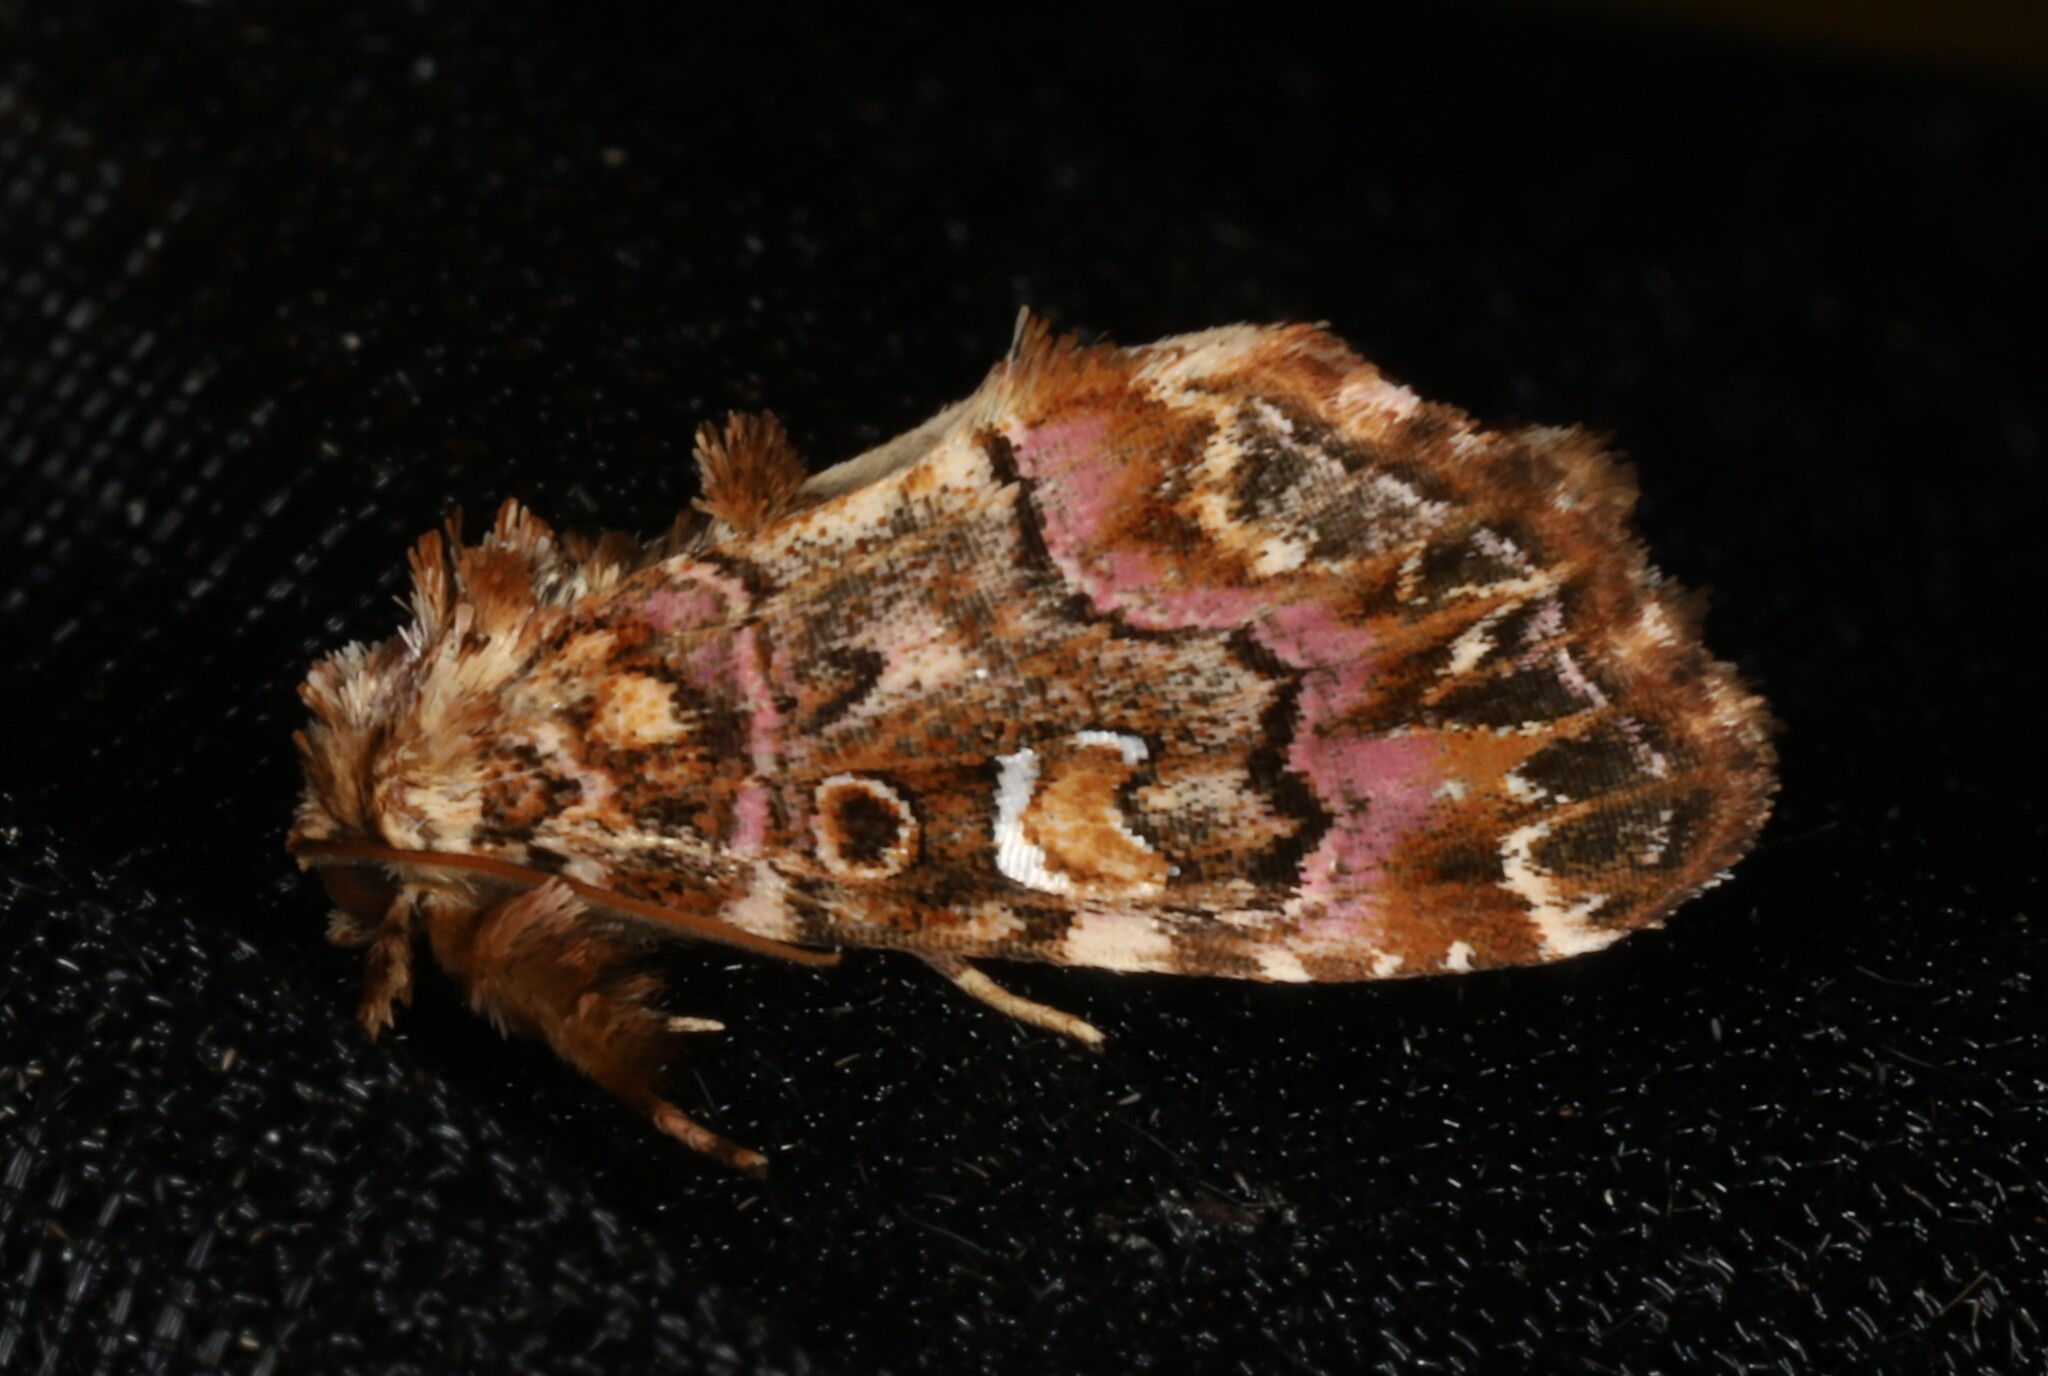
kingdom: Animalia
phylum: Arthropoda
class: Insecta
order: Lepidoptera
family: Noctuidae
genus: Callopistria
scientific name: Callopistria mollissima
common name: Pink-shaded fern moth
